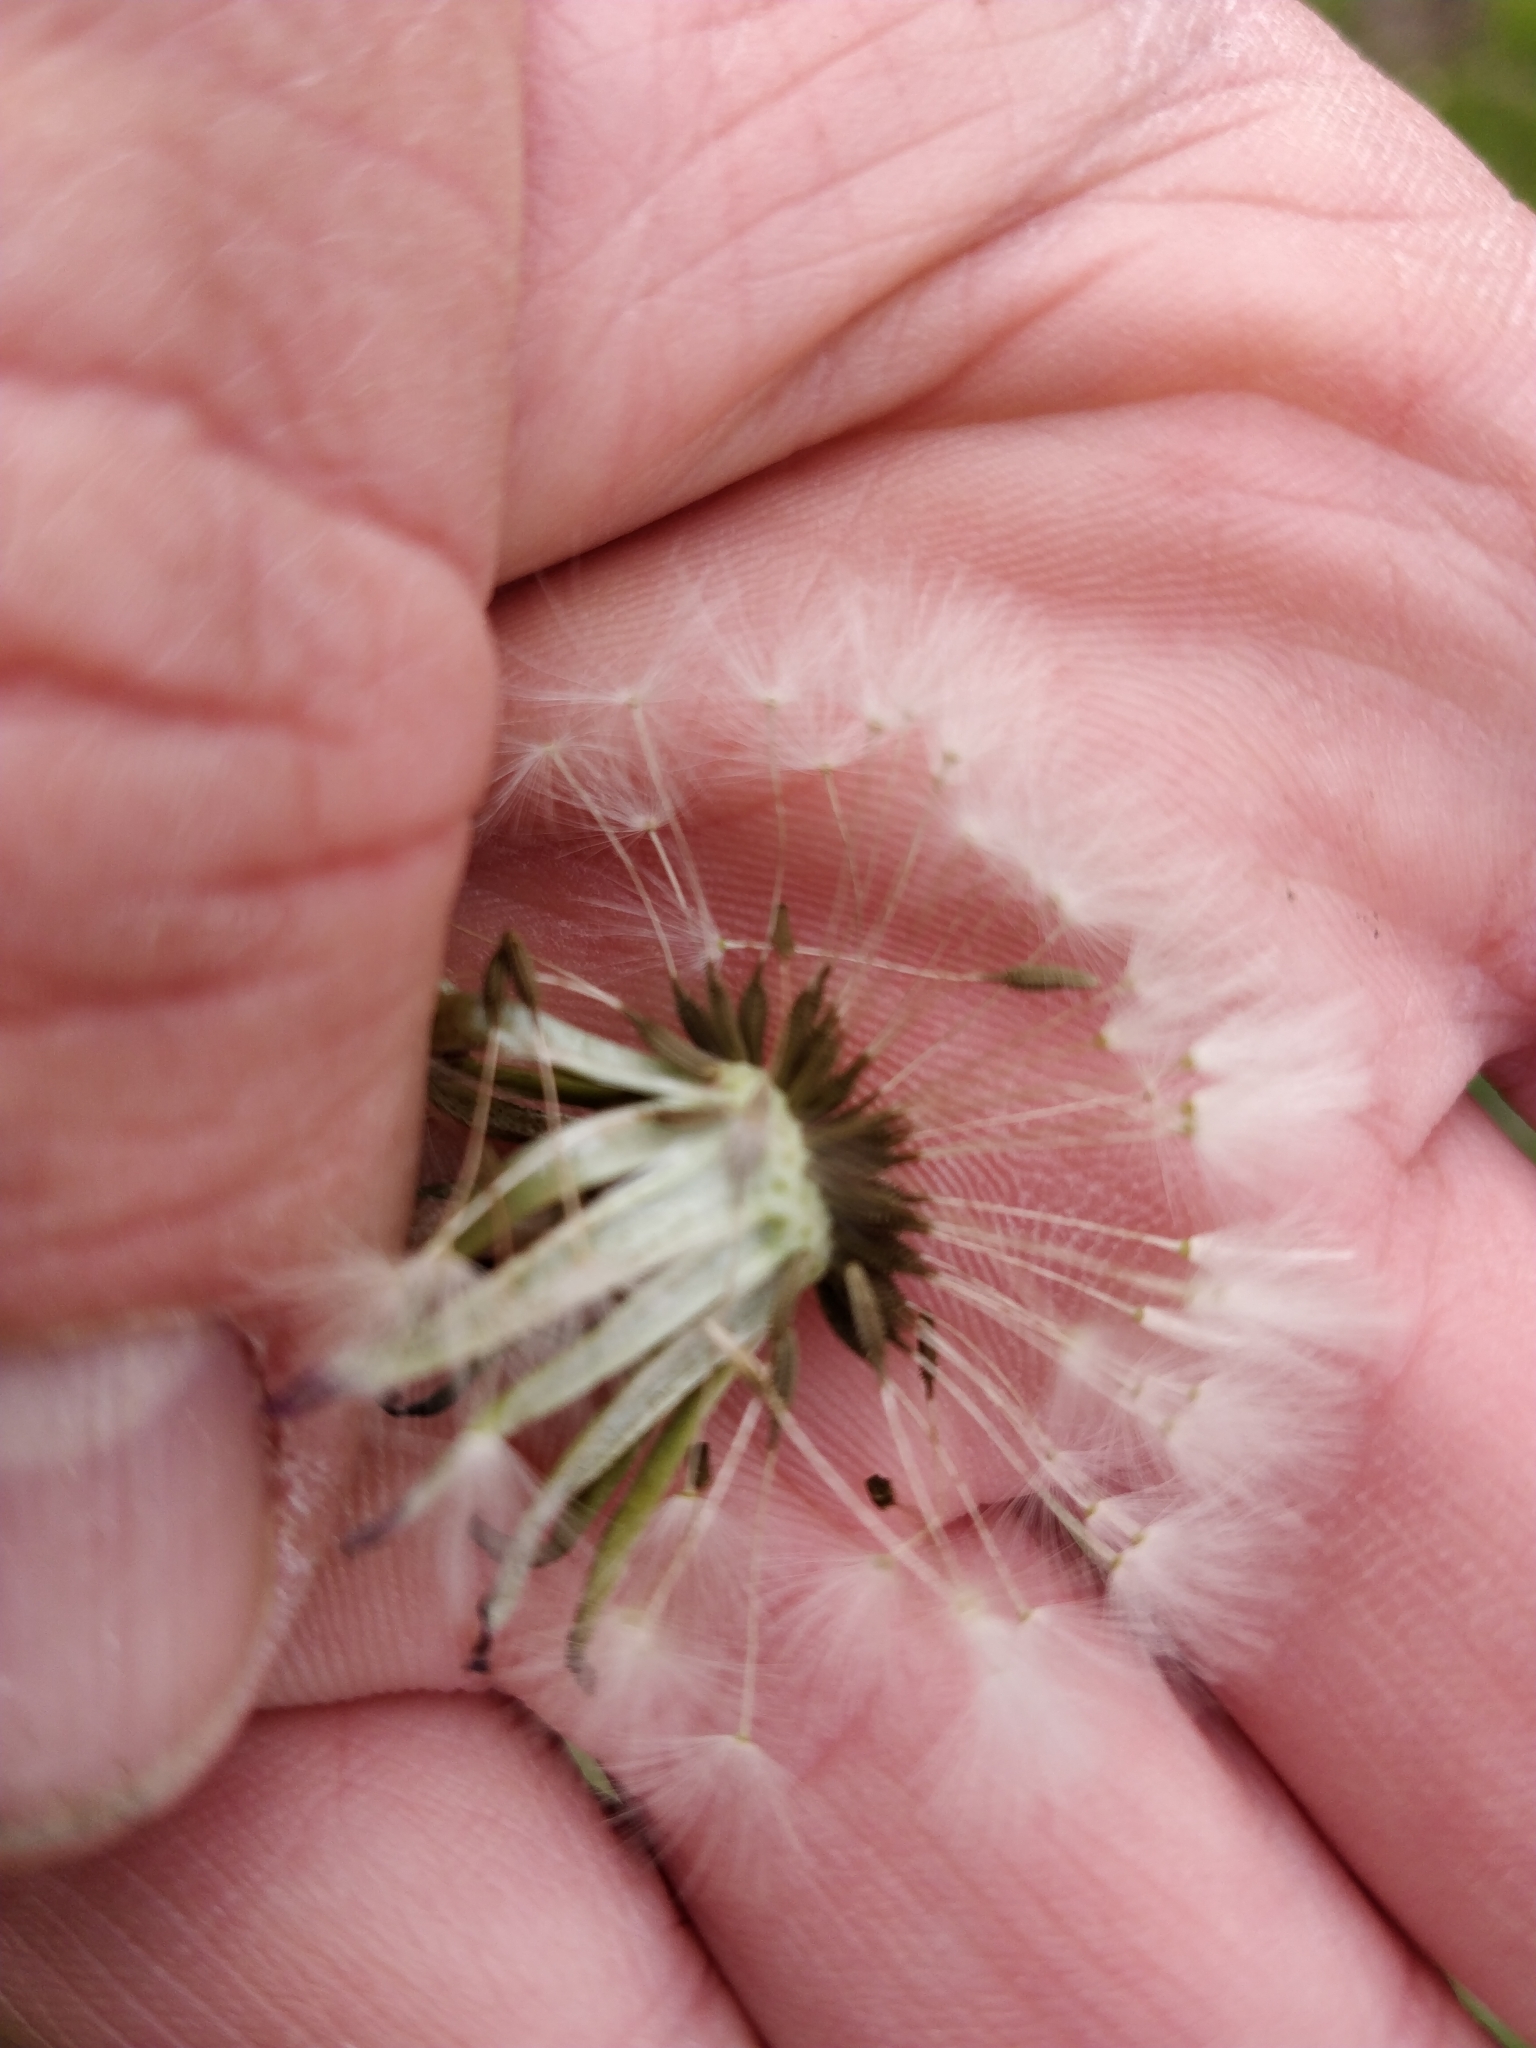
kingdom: Plantae
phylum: Tracheophyta
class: Magnoliopsida
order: Asterales
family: Asteraceae
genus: Taraxacum
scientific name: Taraxacum officinale
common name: Common dandelion
